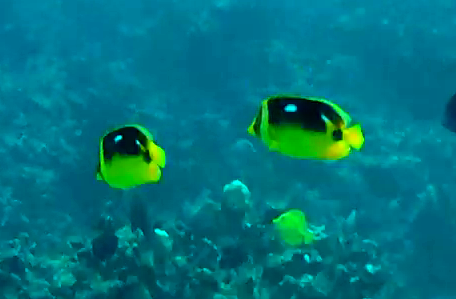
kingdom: Animalia
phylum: Chordata
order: Perciformes
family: Chaetodontidae
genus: Chaetodon
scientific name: Chaetodon quadrimaculatus
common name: Fourspot butterflyfish
